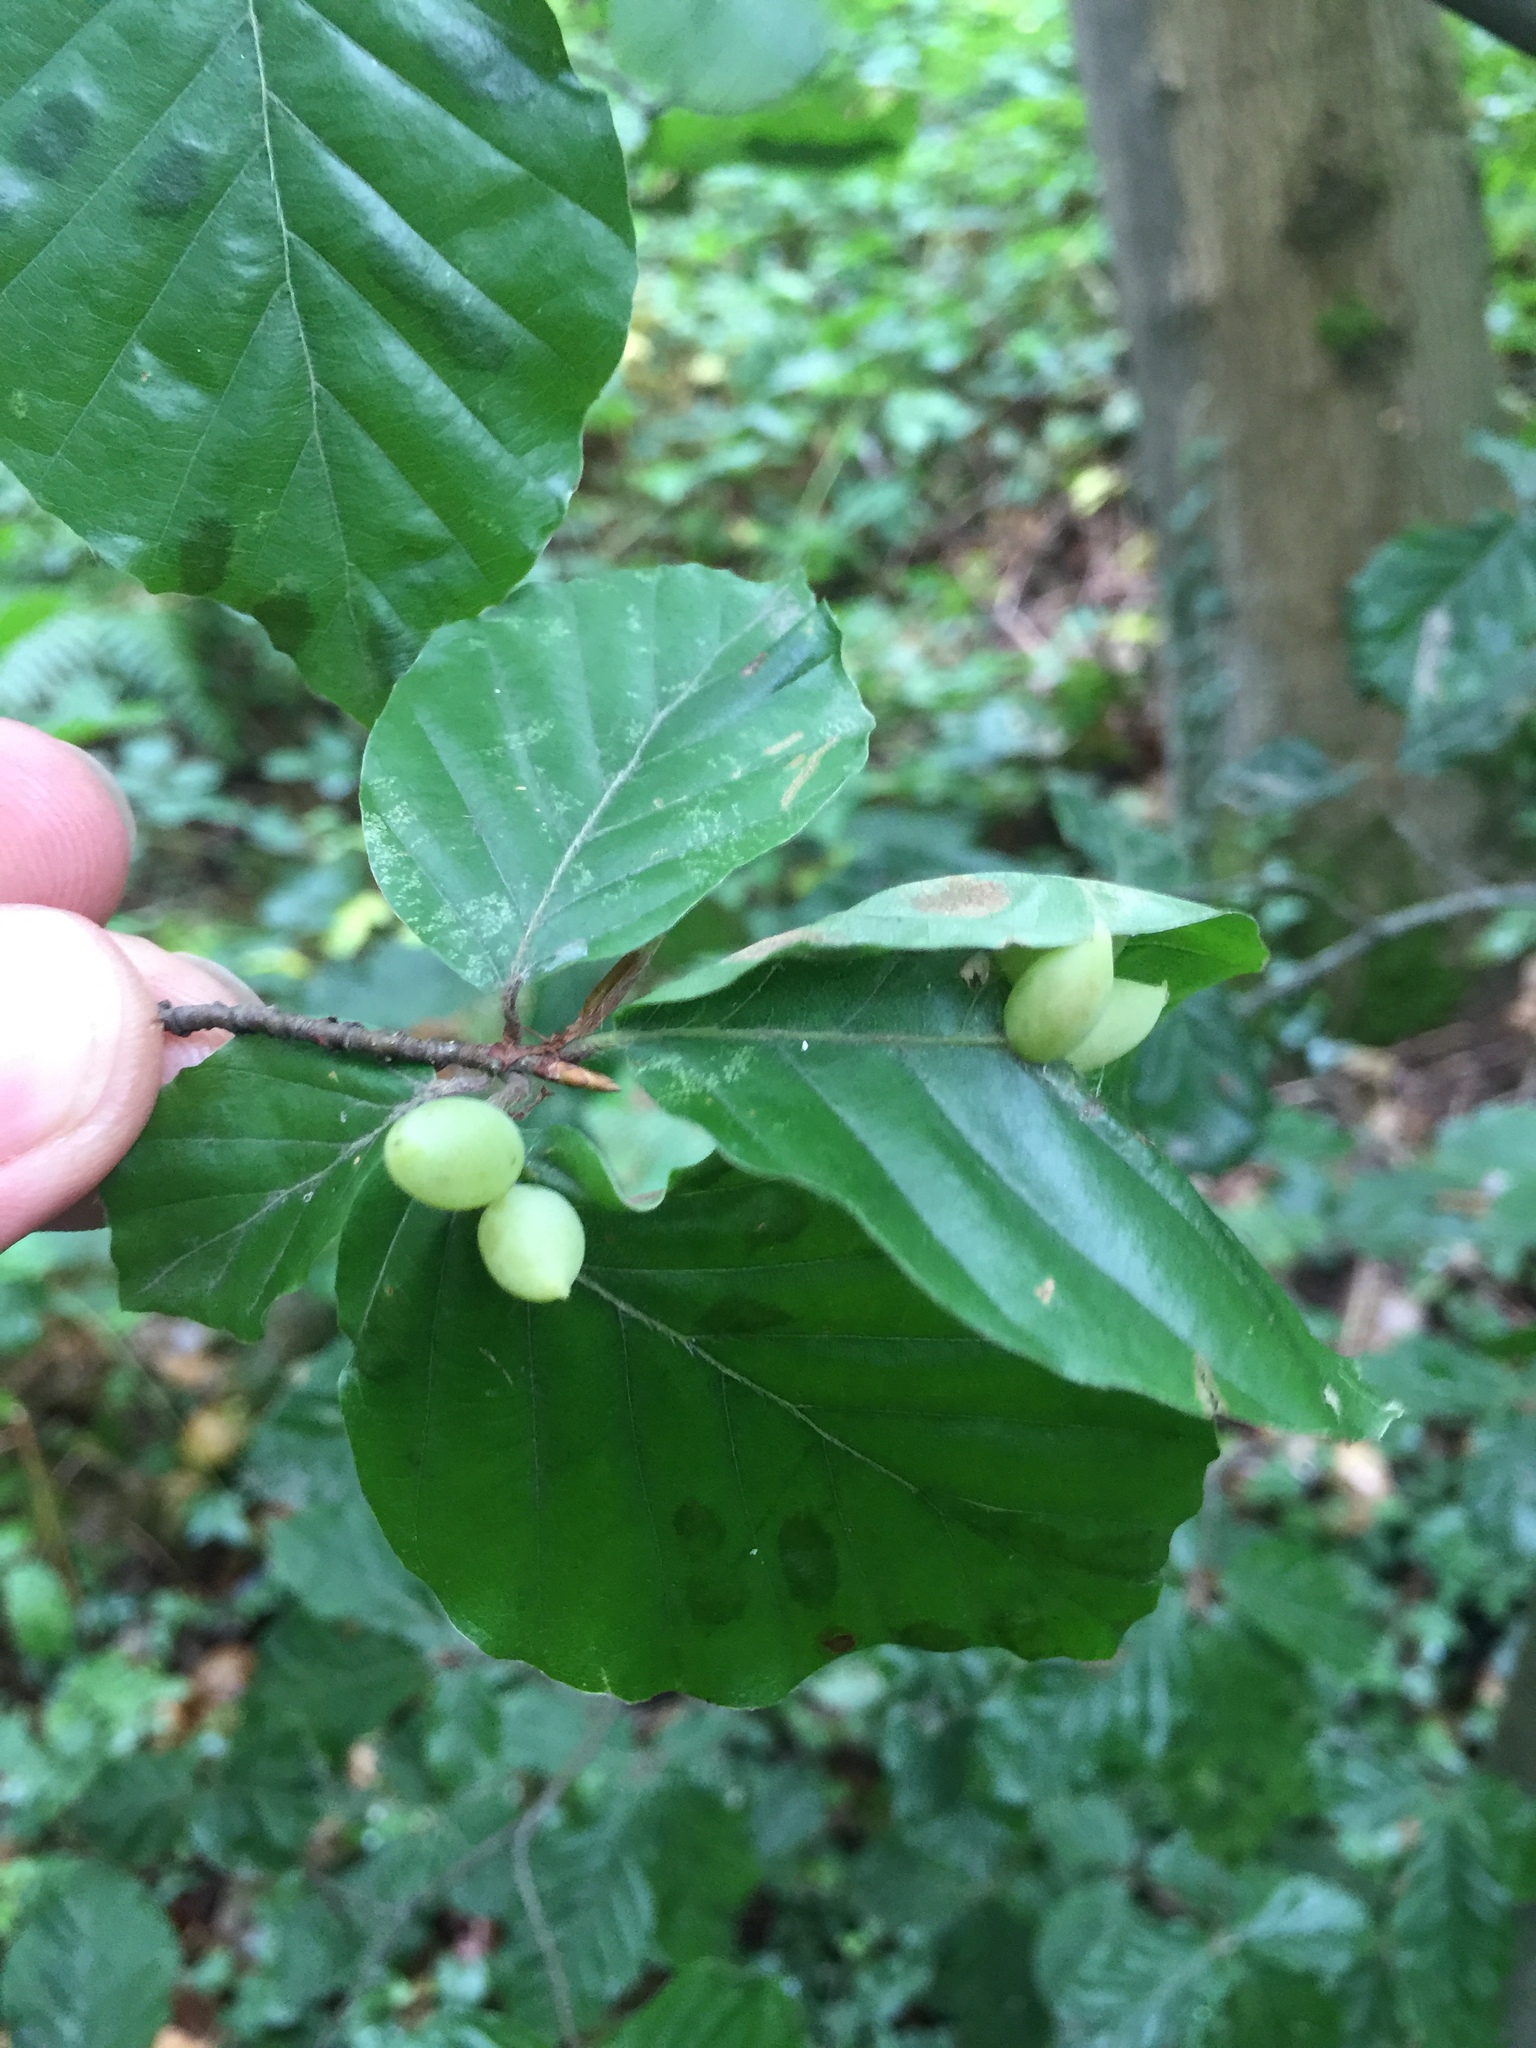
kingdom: Animalia
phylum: Arthropoda
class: Insecta
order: Diptera
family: Cecidomyiidae
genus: Mikiola
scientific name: Mikiola fagi
